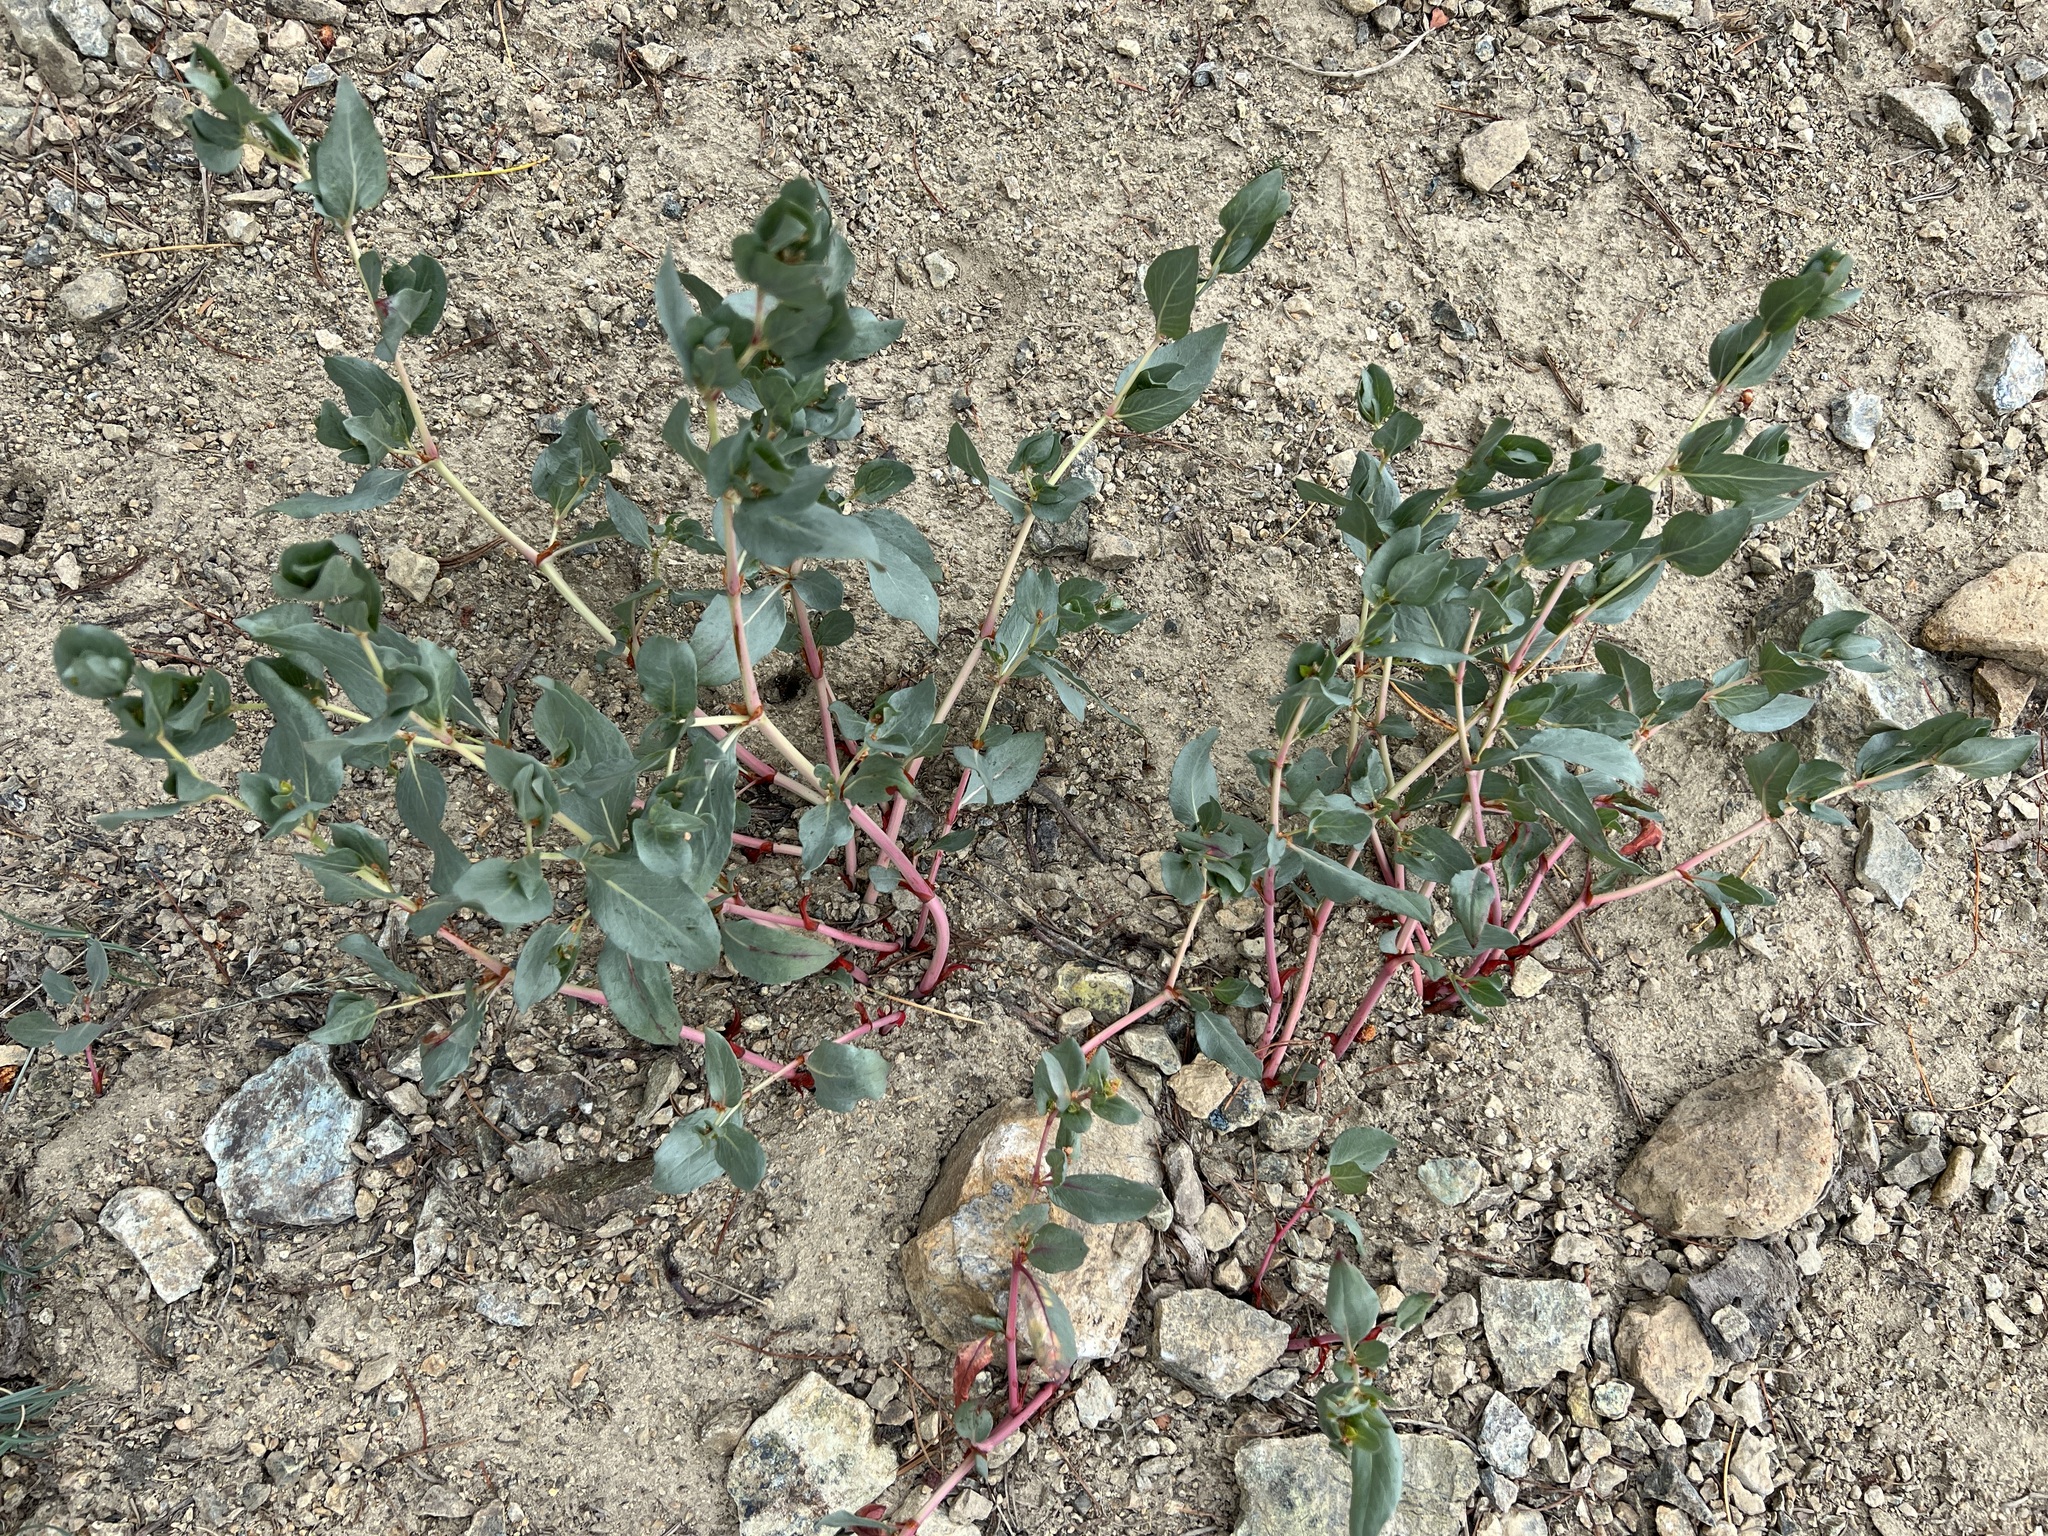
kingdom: Plantae
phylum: Tracheophyta
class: Magnoliopsida
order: Caryophyllales
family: Polygonaceae
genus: Koenigia
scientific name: Koenigia davisiae
